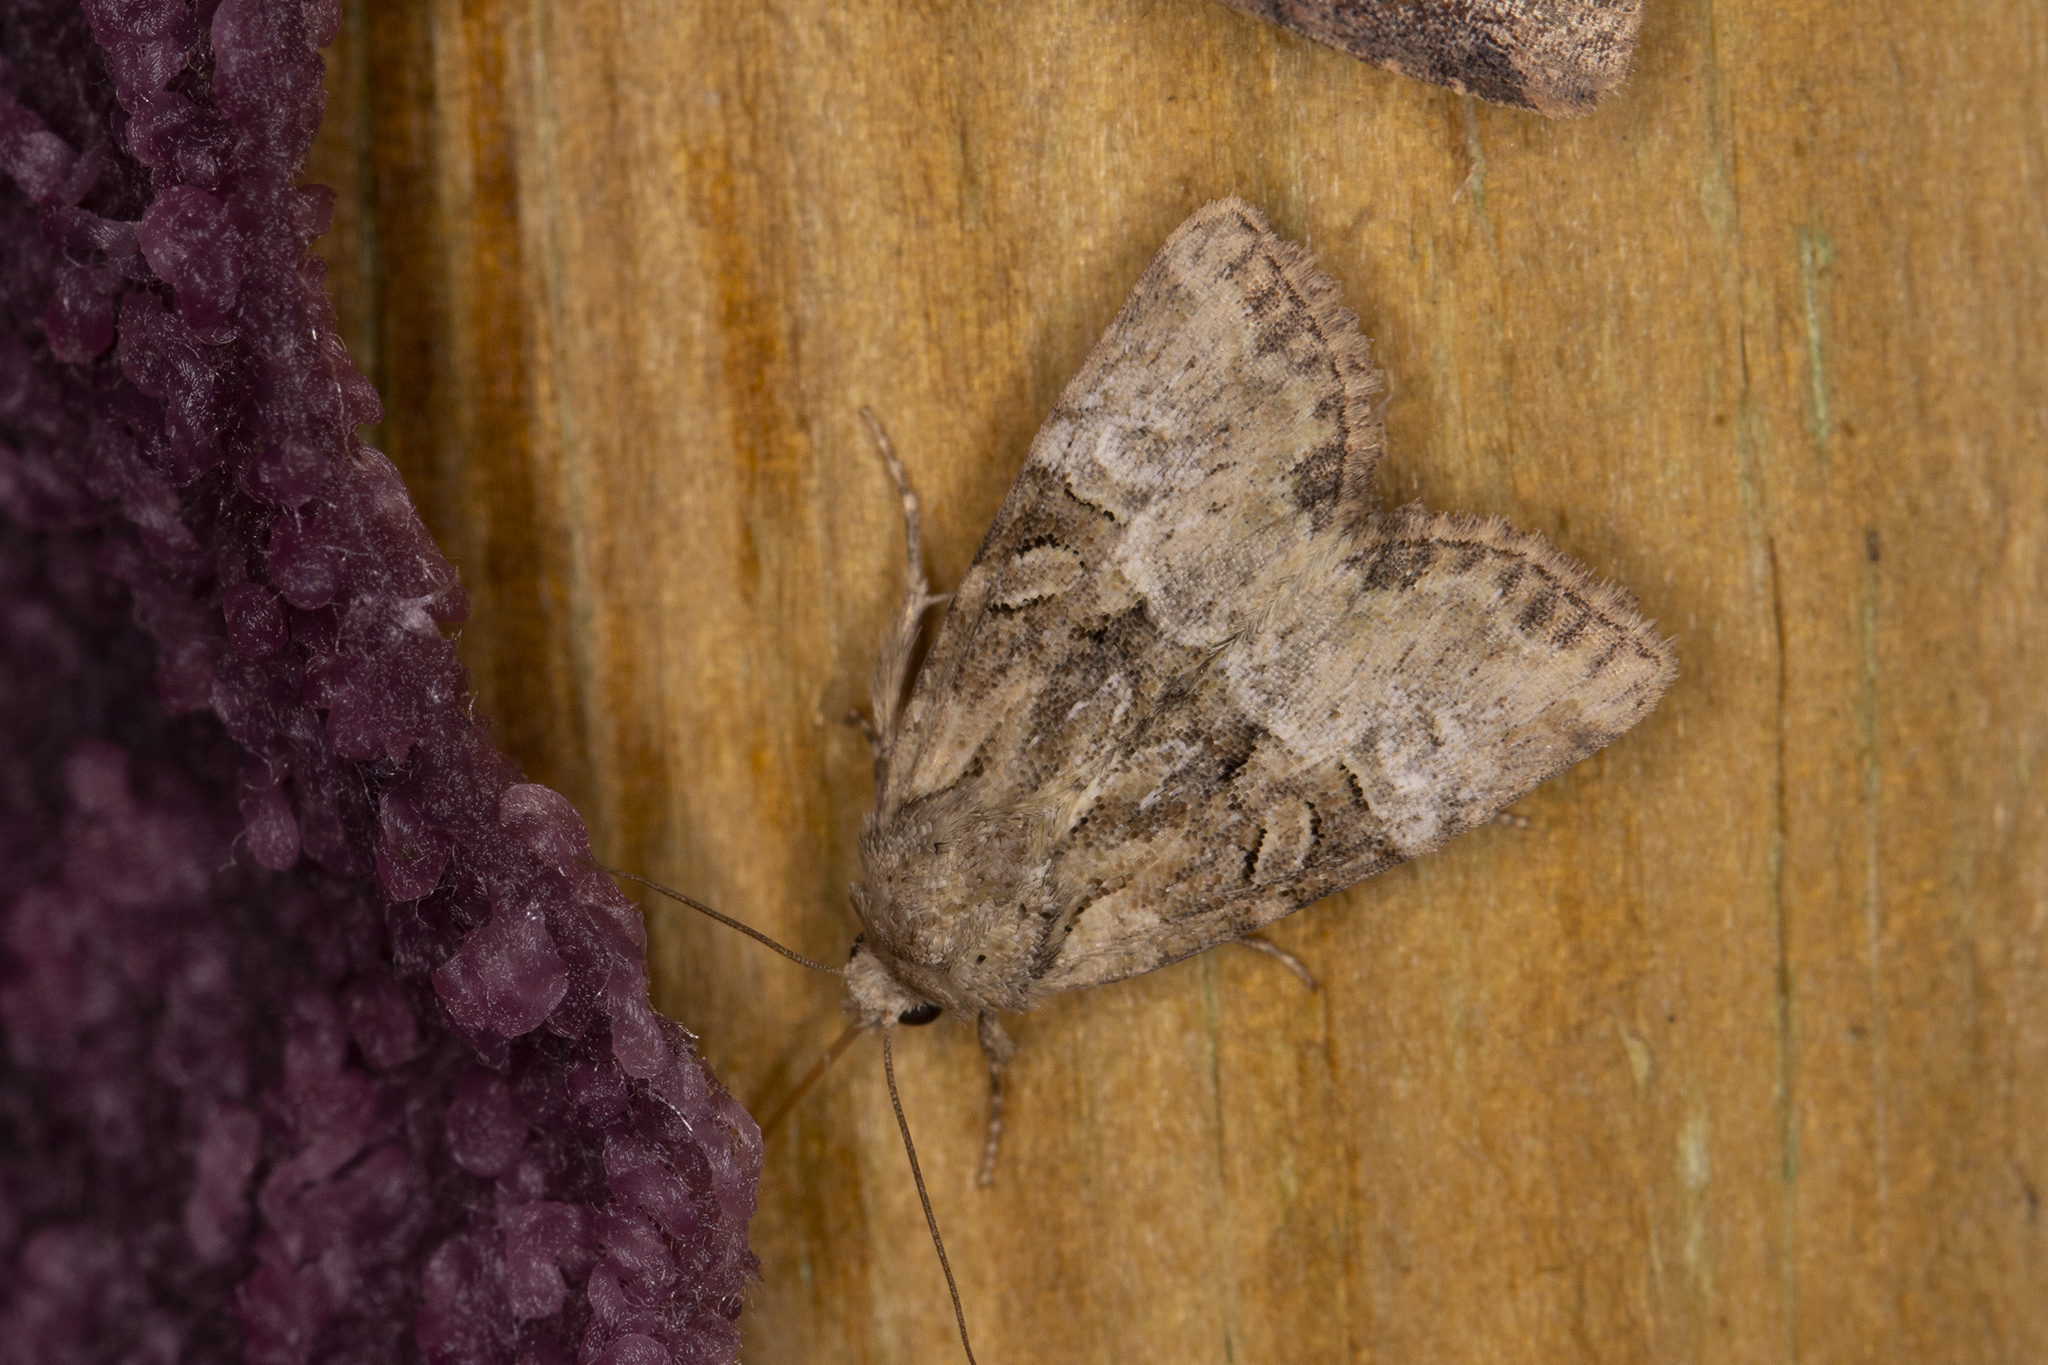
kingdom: Animalia
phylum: Arthropoda
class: Insecta
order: Lepidoptera
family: Noctuidae
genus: Mesoligia
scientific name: Mesoligia furuncula
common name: Cloaked minor
